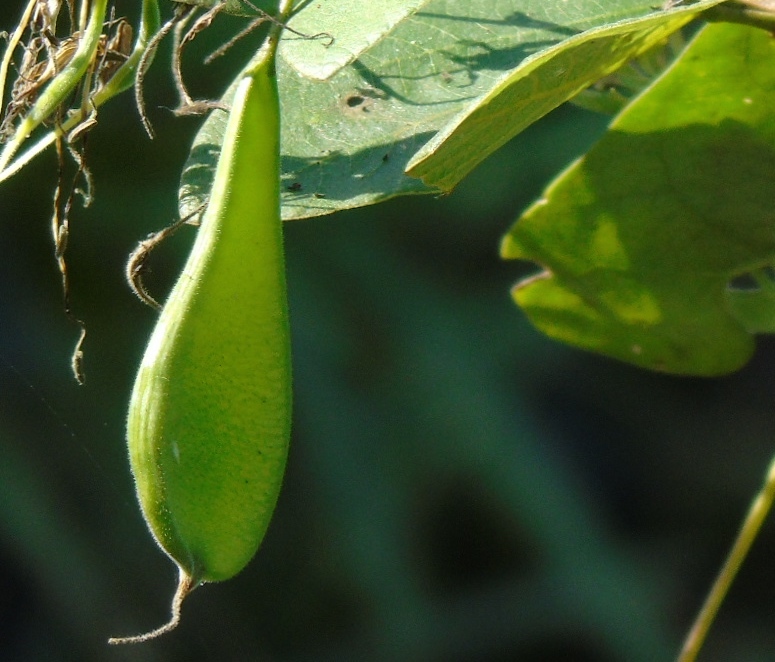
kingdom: Plantae
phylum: Tracheophyta
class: Magnoliopsida
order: Fabales
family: Fabaceae
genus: Bauhinia
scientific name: Bauhinia divaricata
